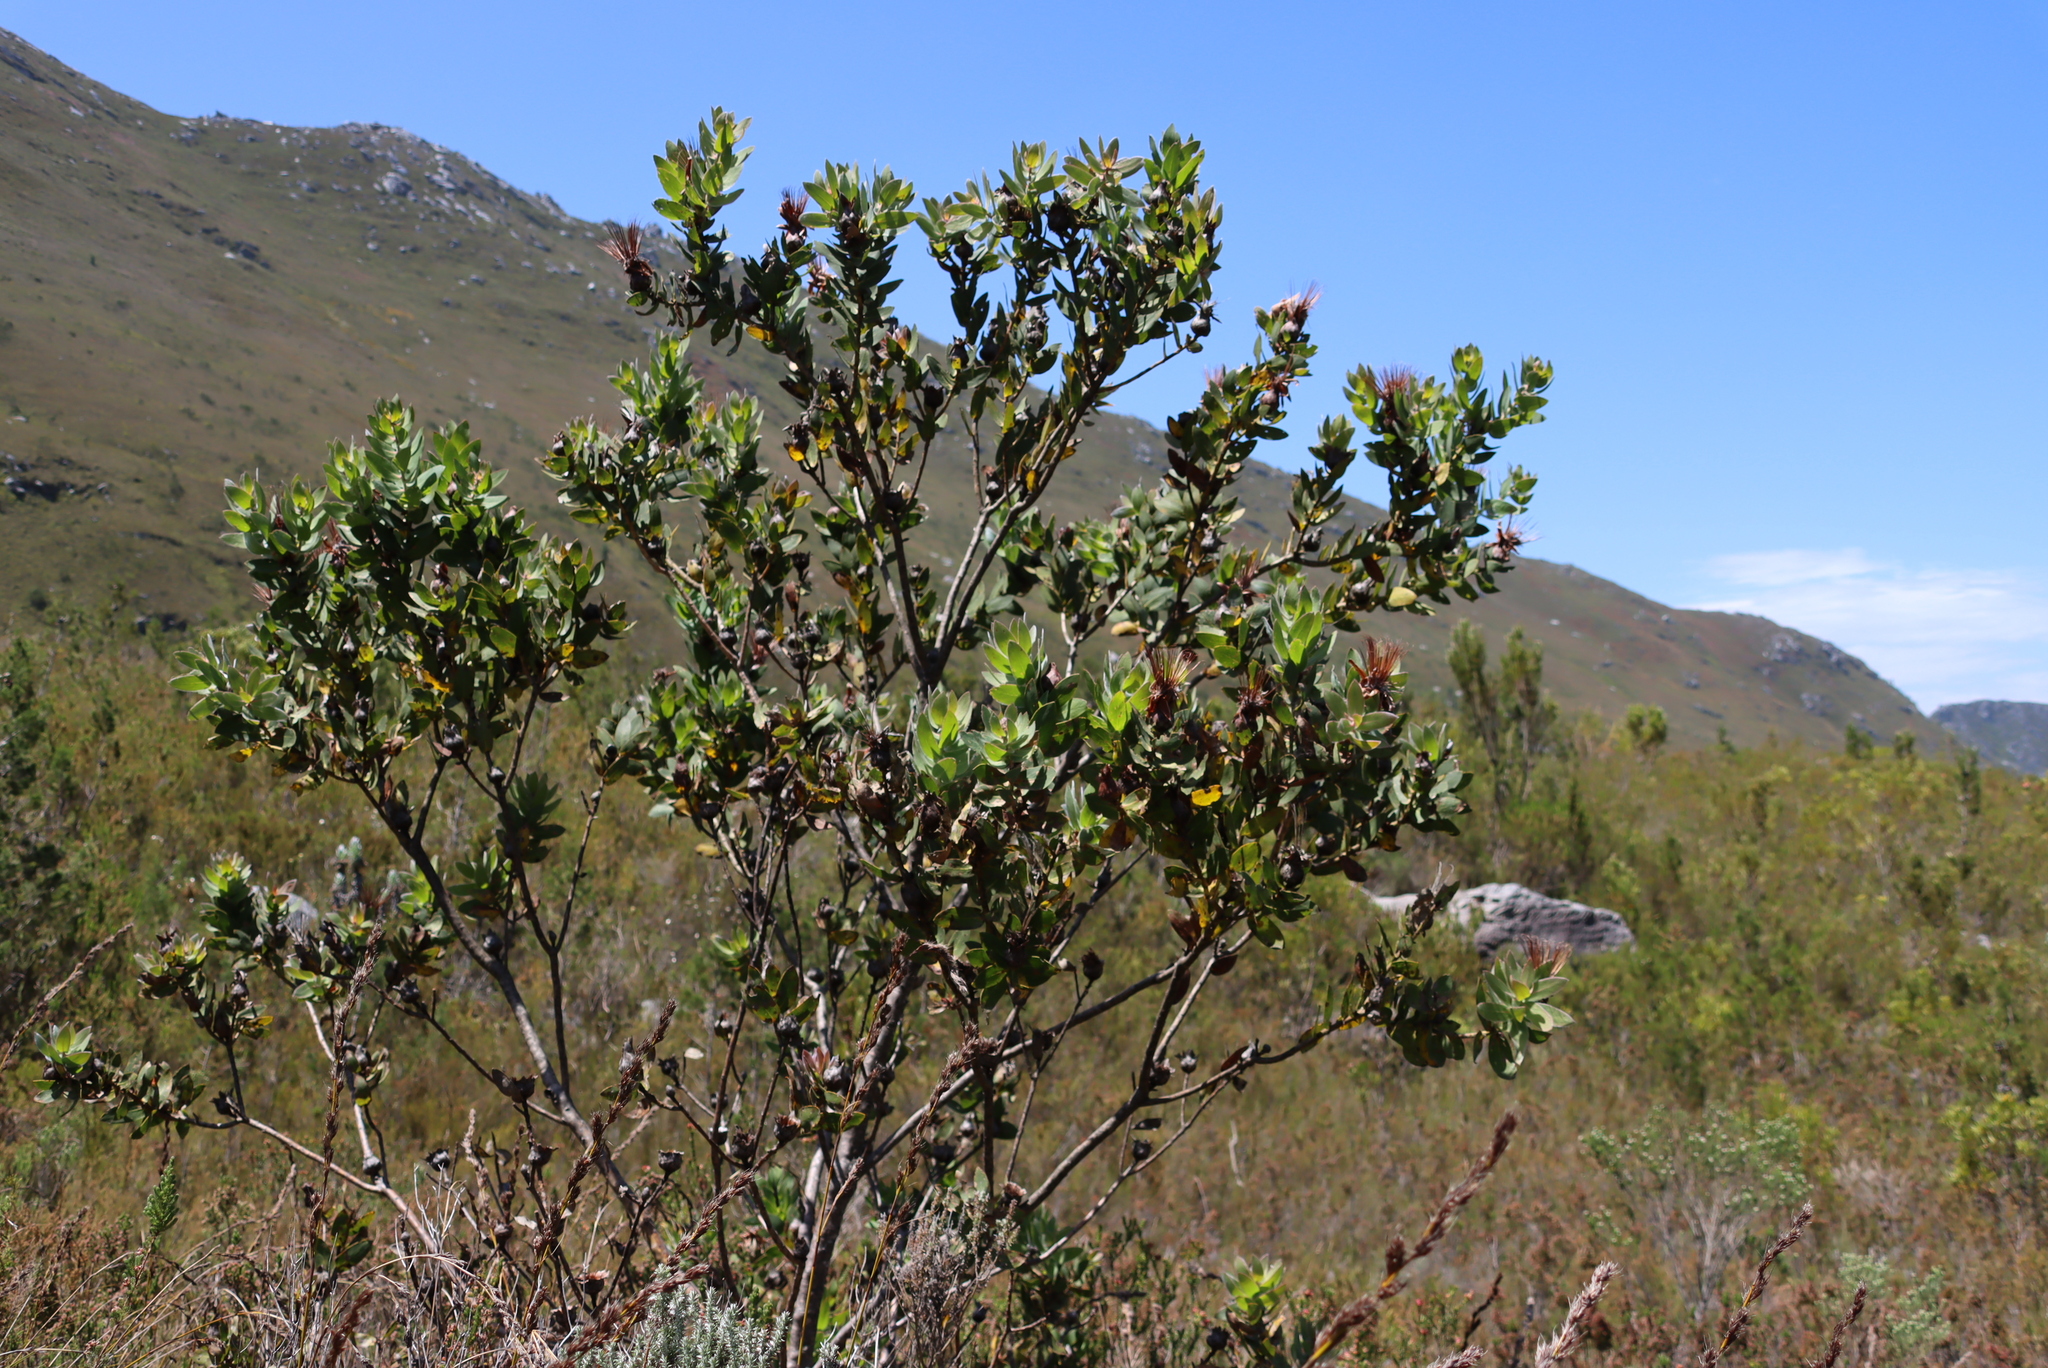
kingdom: Plantae
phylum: Tracheophyta
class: Magnoliopsida
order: Proteales
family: Proteaceae
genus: Protea
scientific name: Protea aurea
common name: Shuttlecock sugarbush
